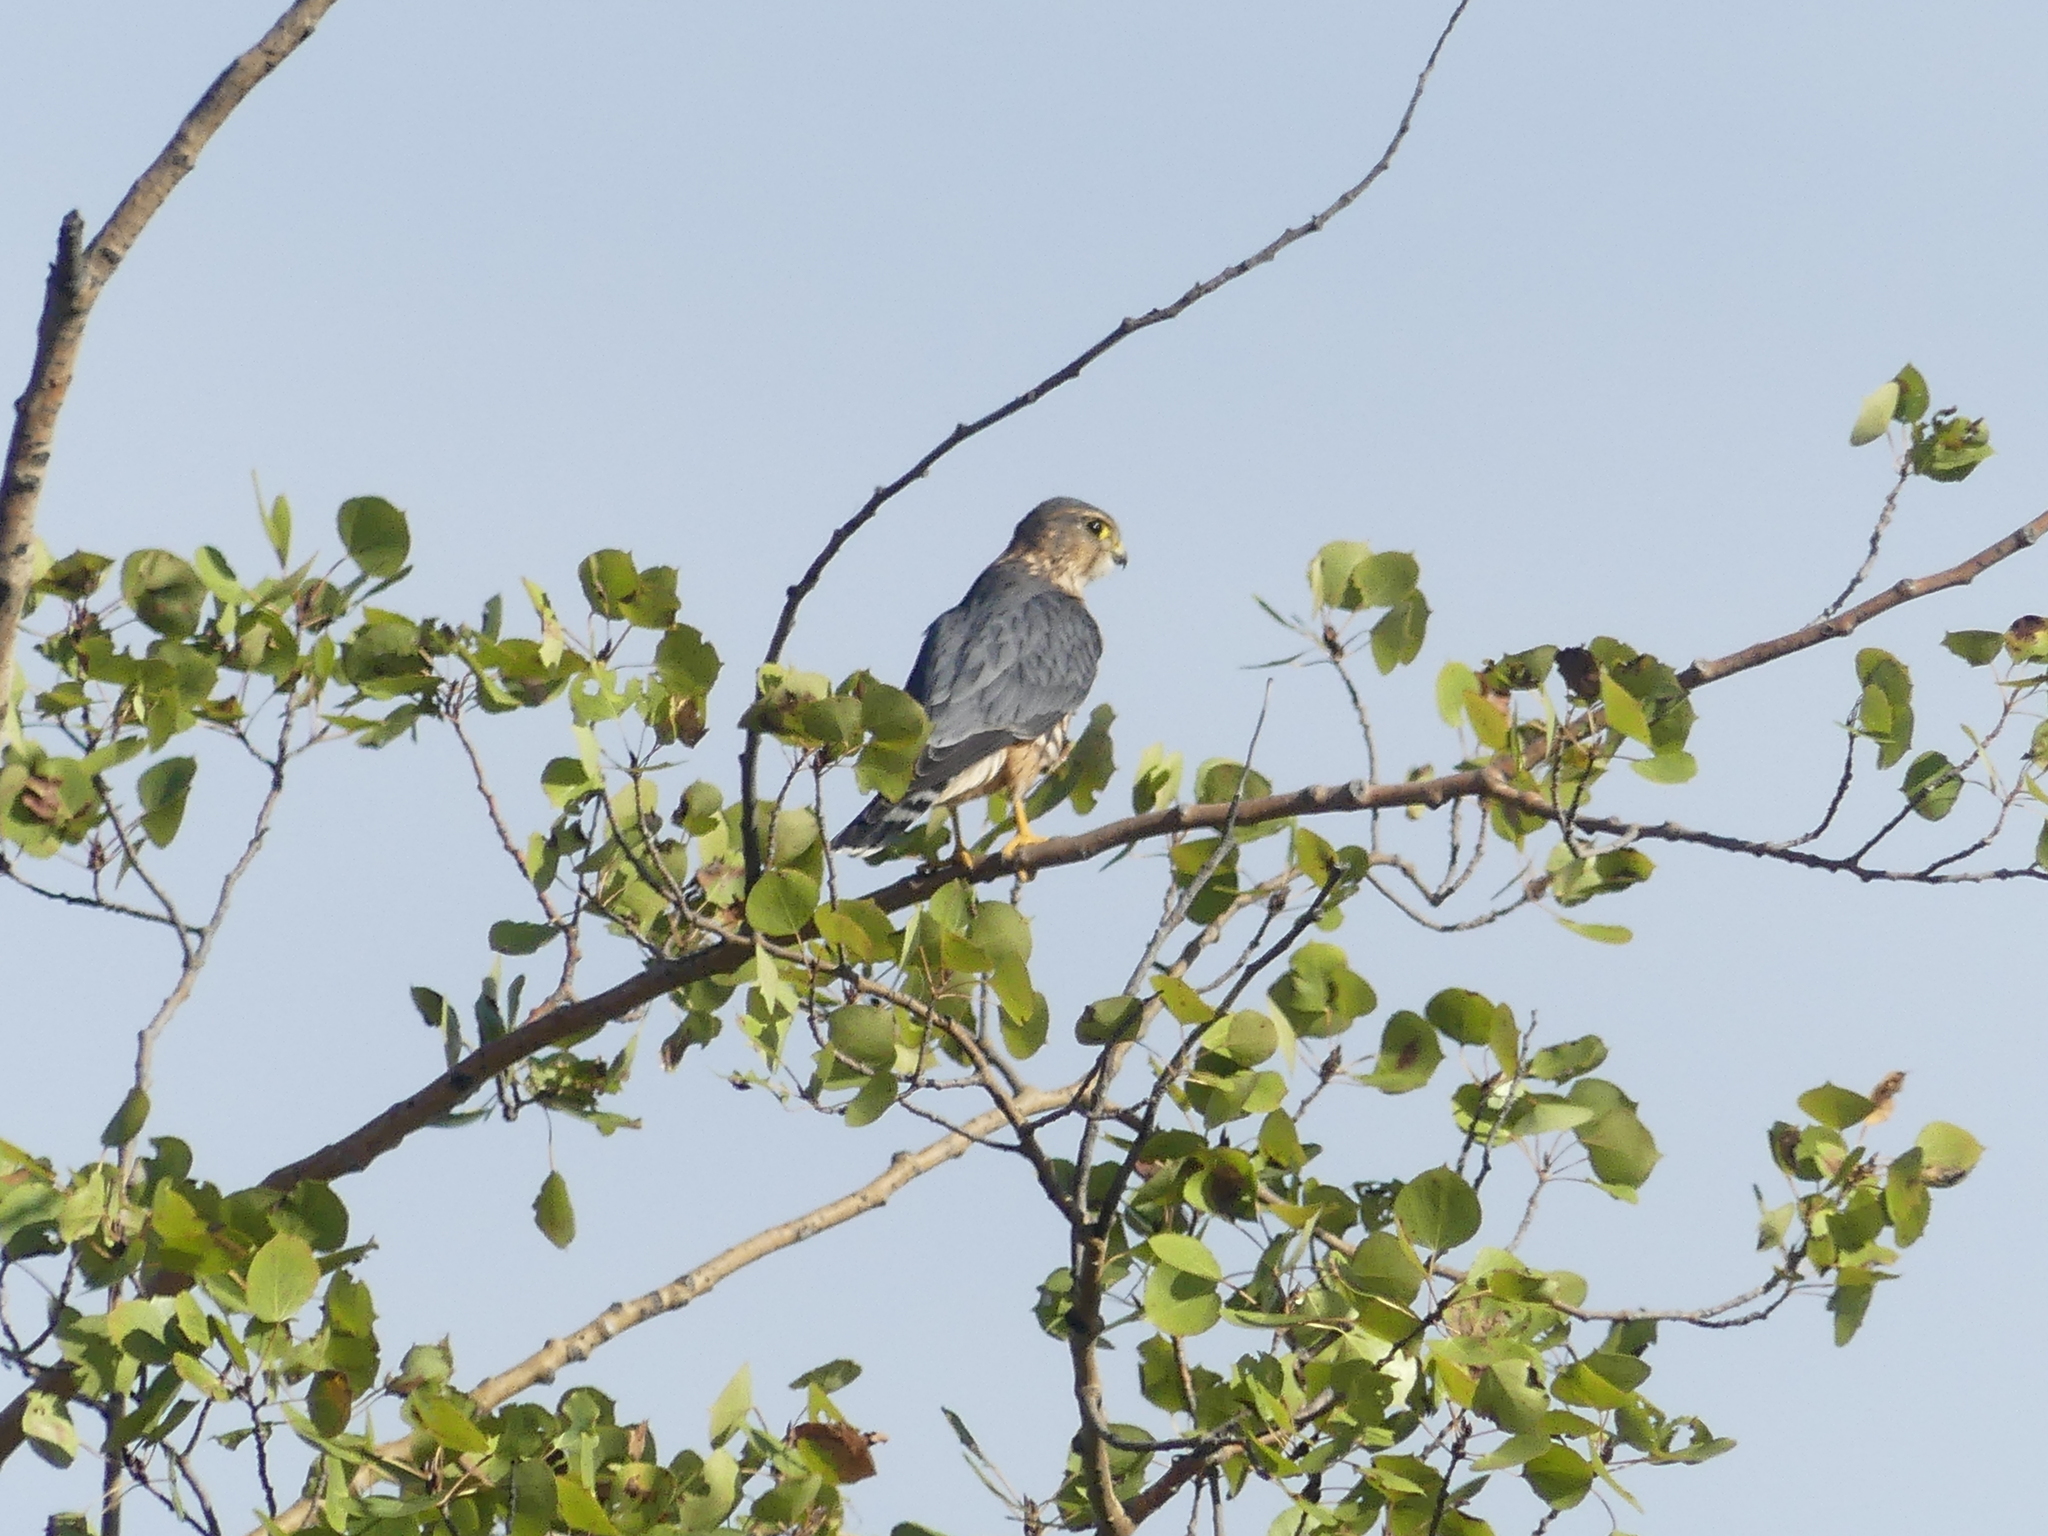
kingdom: Animalia
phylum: Chordata
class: Aves
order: Falconiformes
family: Falconidae
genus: Falco
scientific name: Falco columbarius
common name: Merlin
